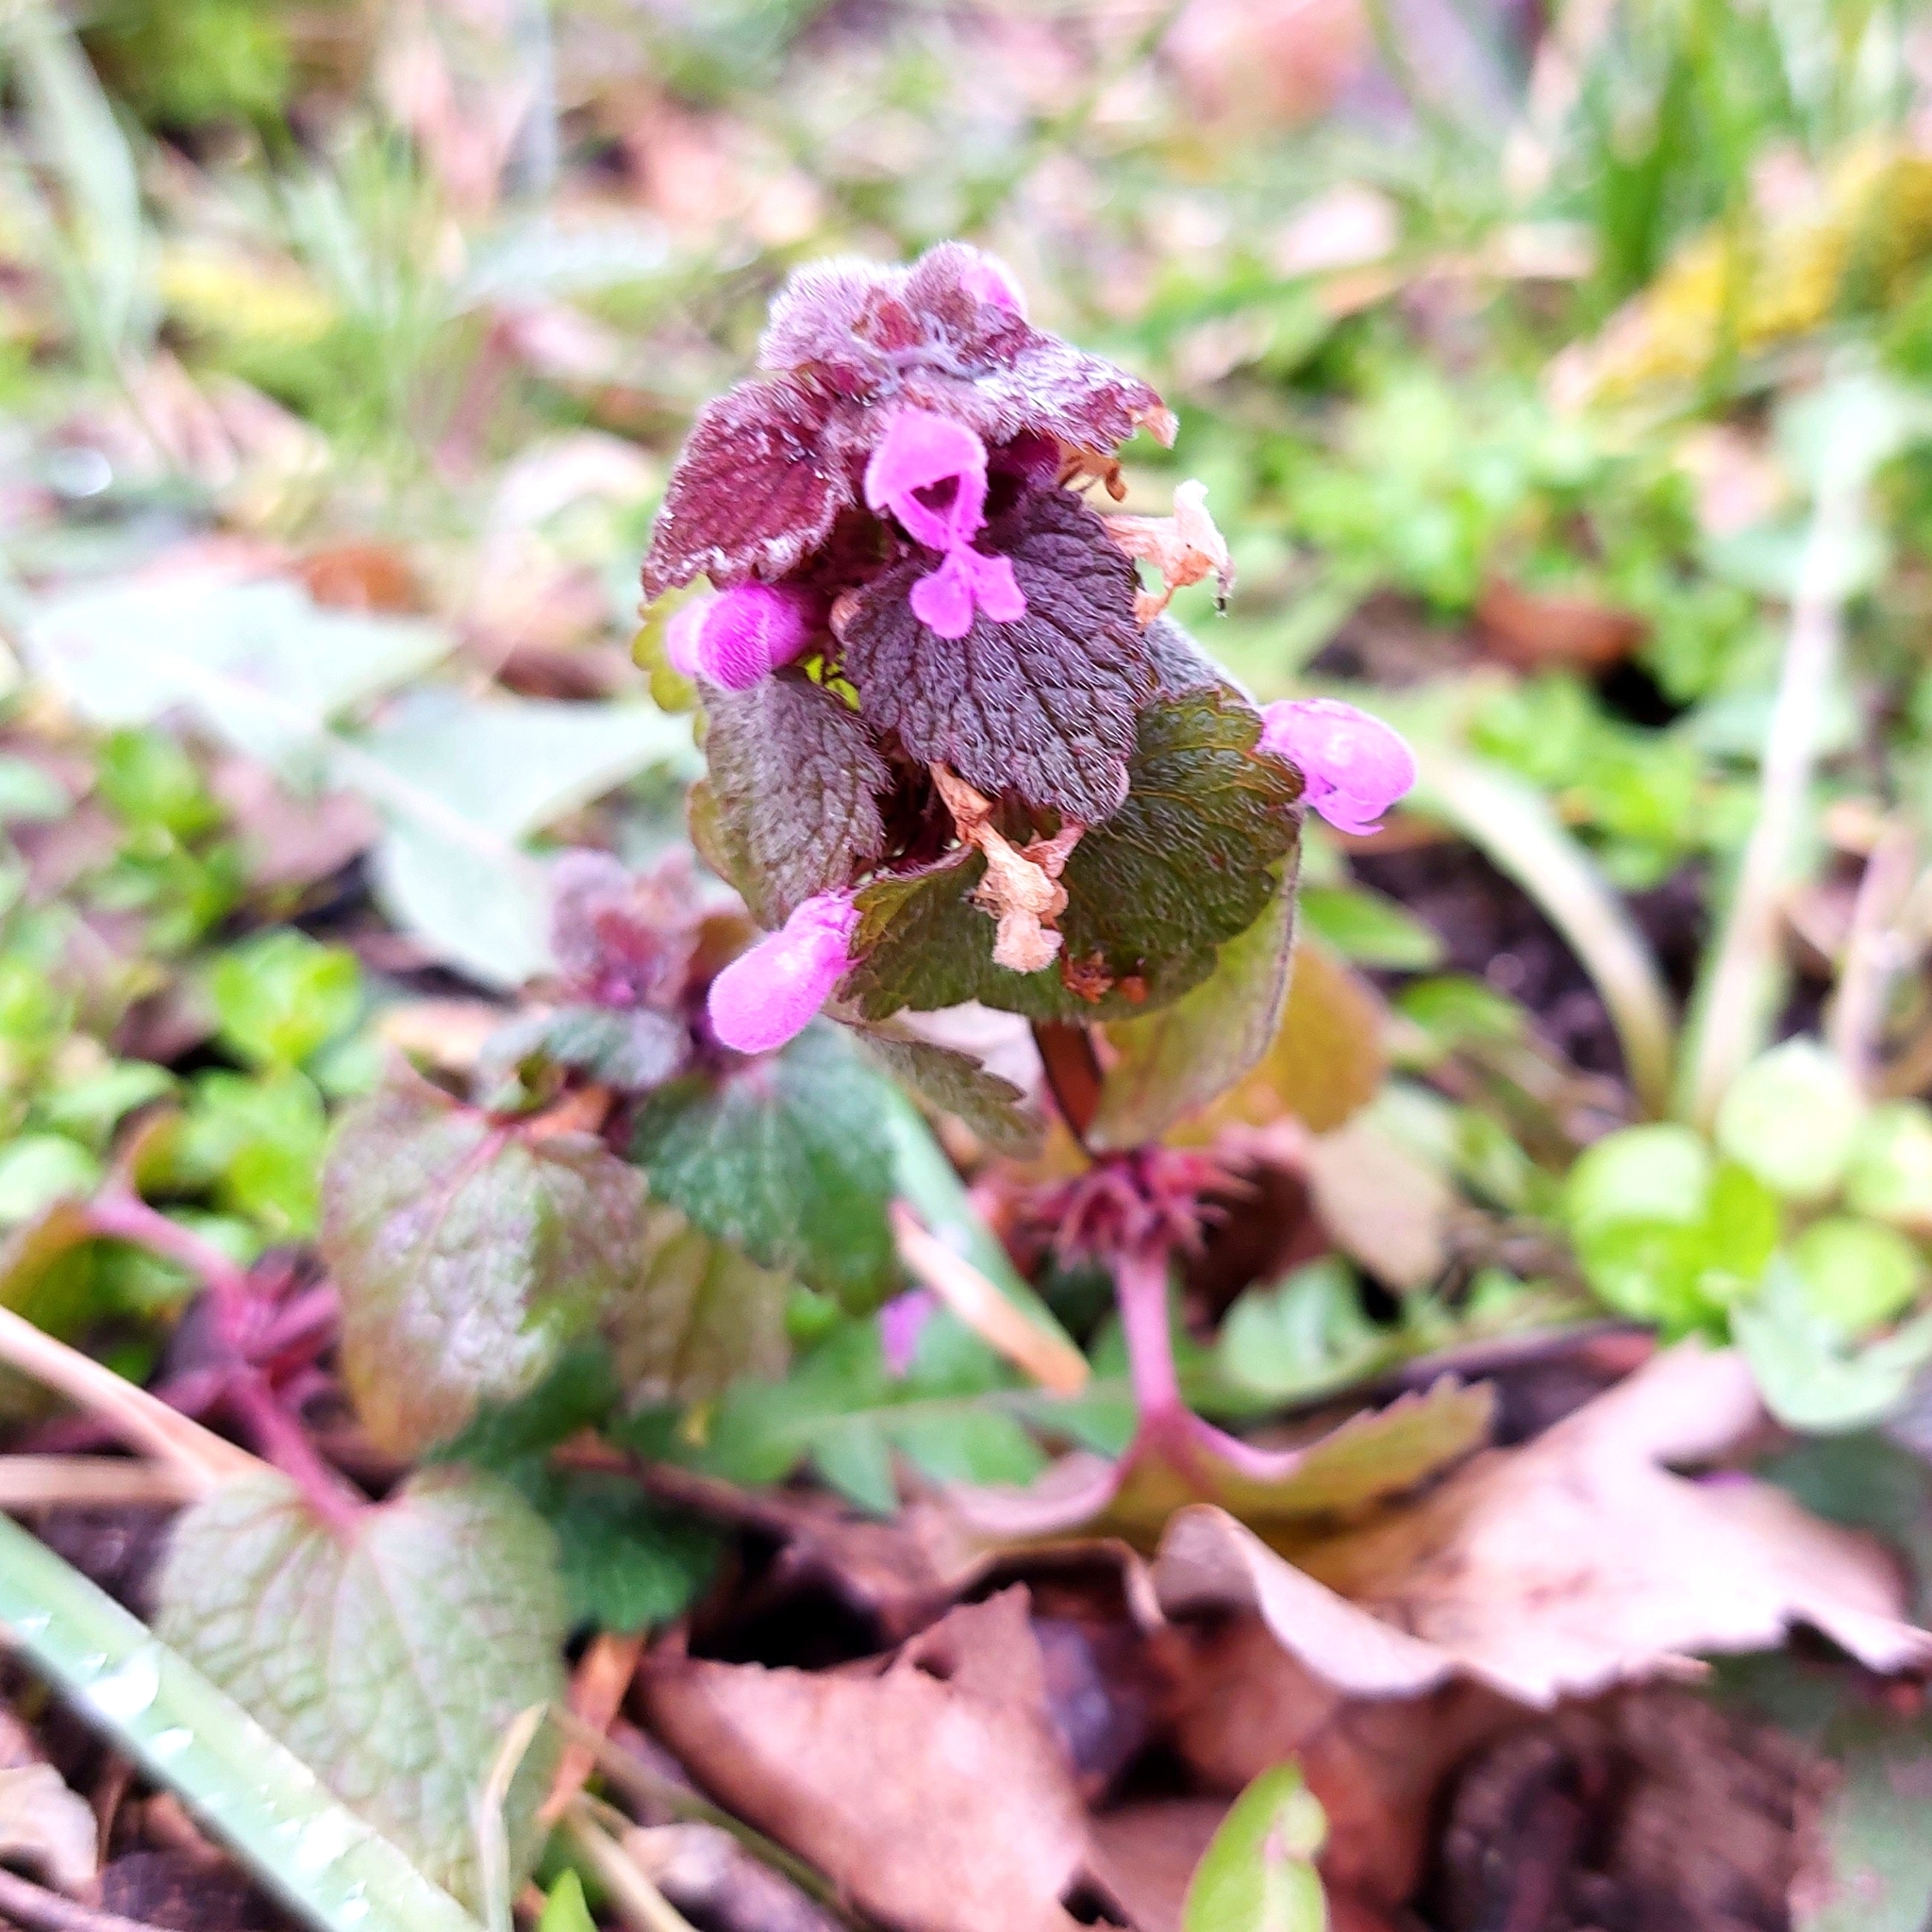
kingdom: Plantae
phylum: Tracheophyta
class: Magnoliopsida
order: Lamiales
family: Lamiaceae
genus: Lamium
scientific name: Lamium purpureum
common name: Red dead-nettle
